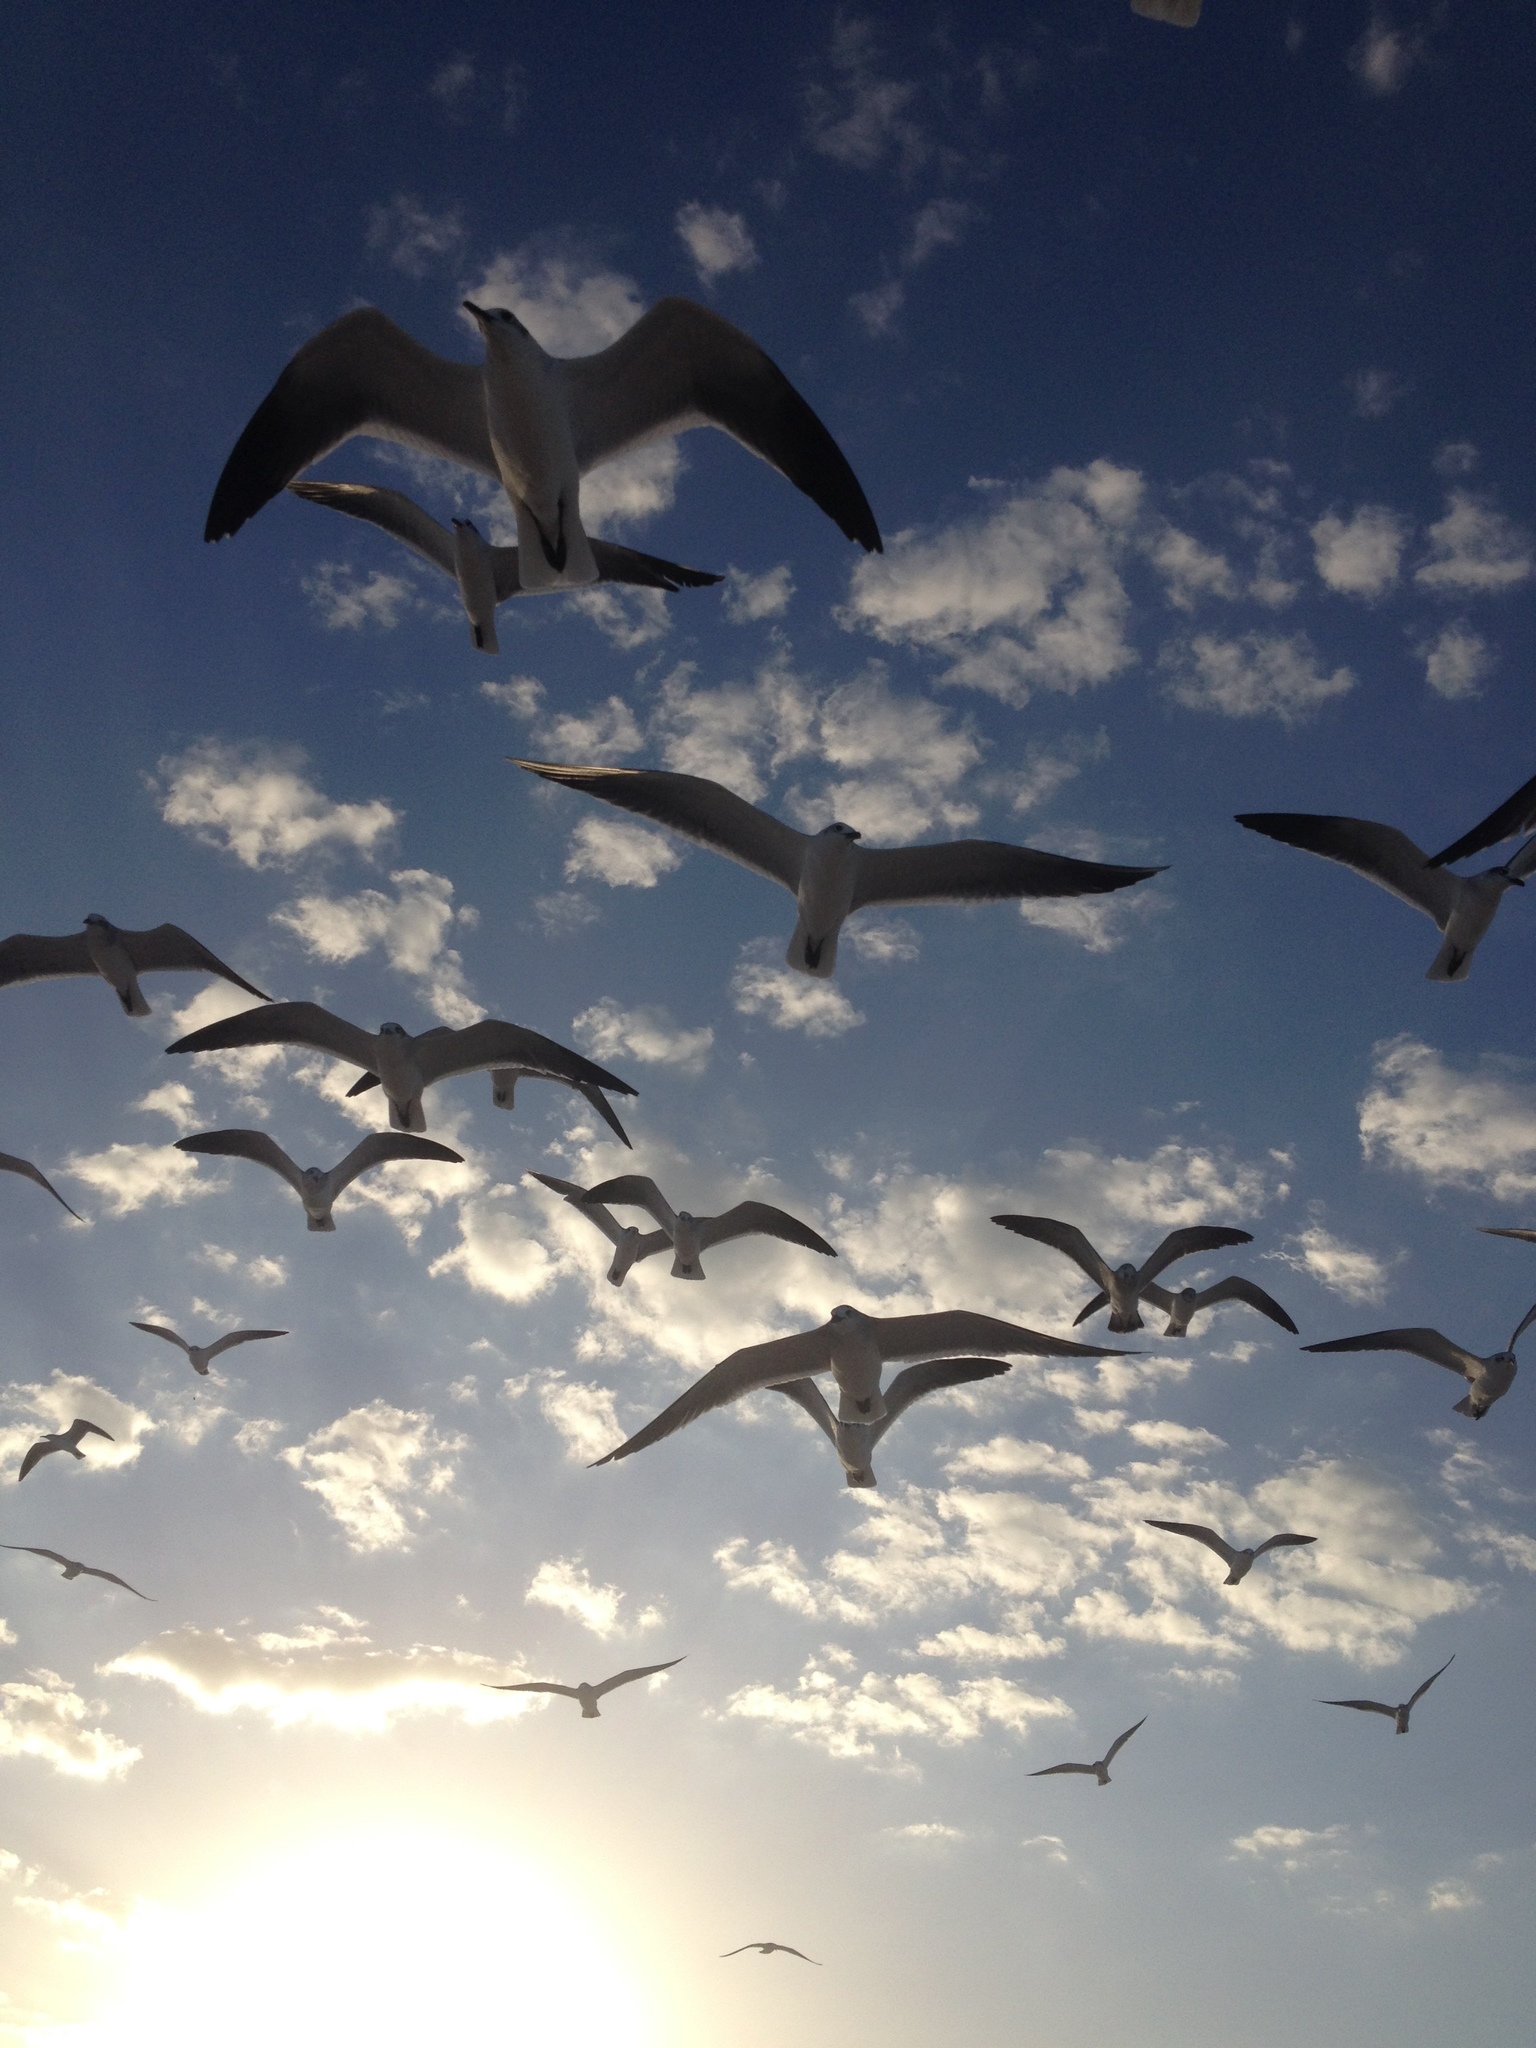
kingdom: Animalia
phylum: Chordata
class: Aves
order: Charadriiformes
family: Laridae
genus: Leucophaeus
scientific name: Leucophaeus atricilla
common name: Laughing gull
